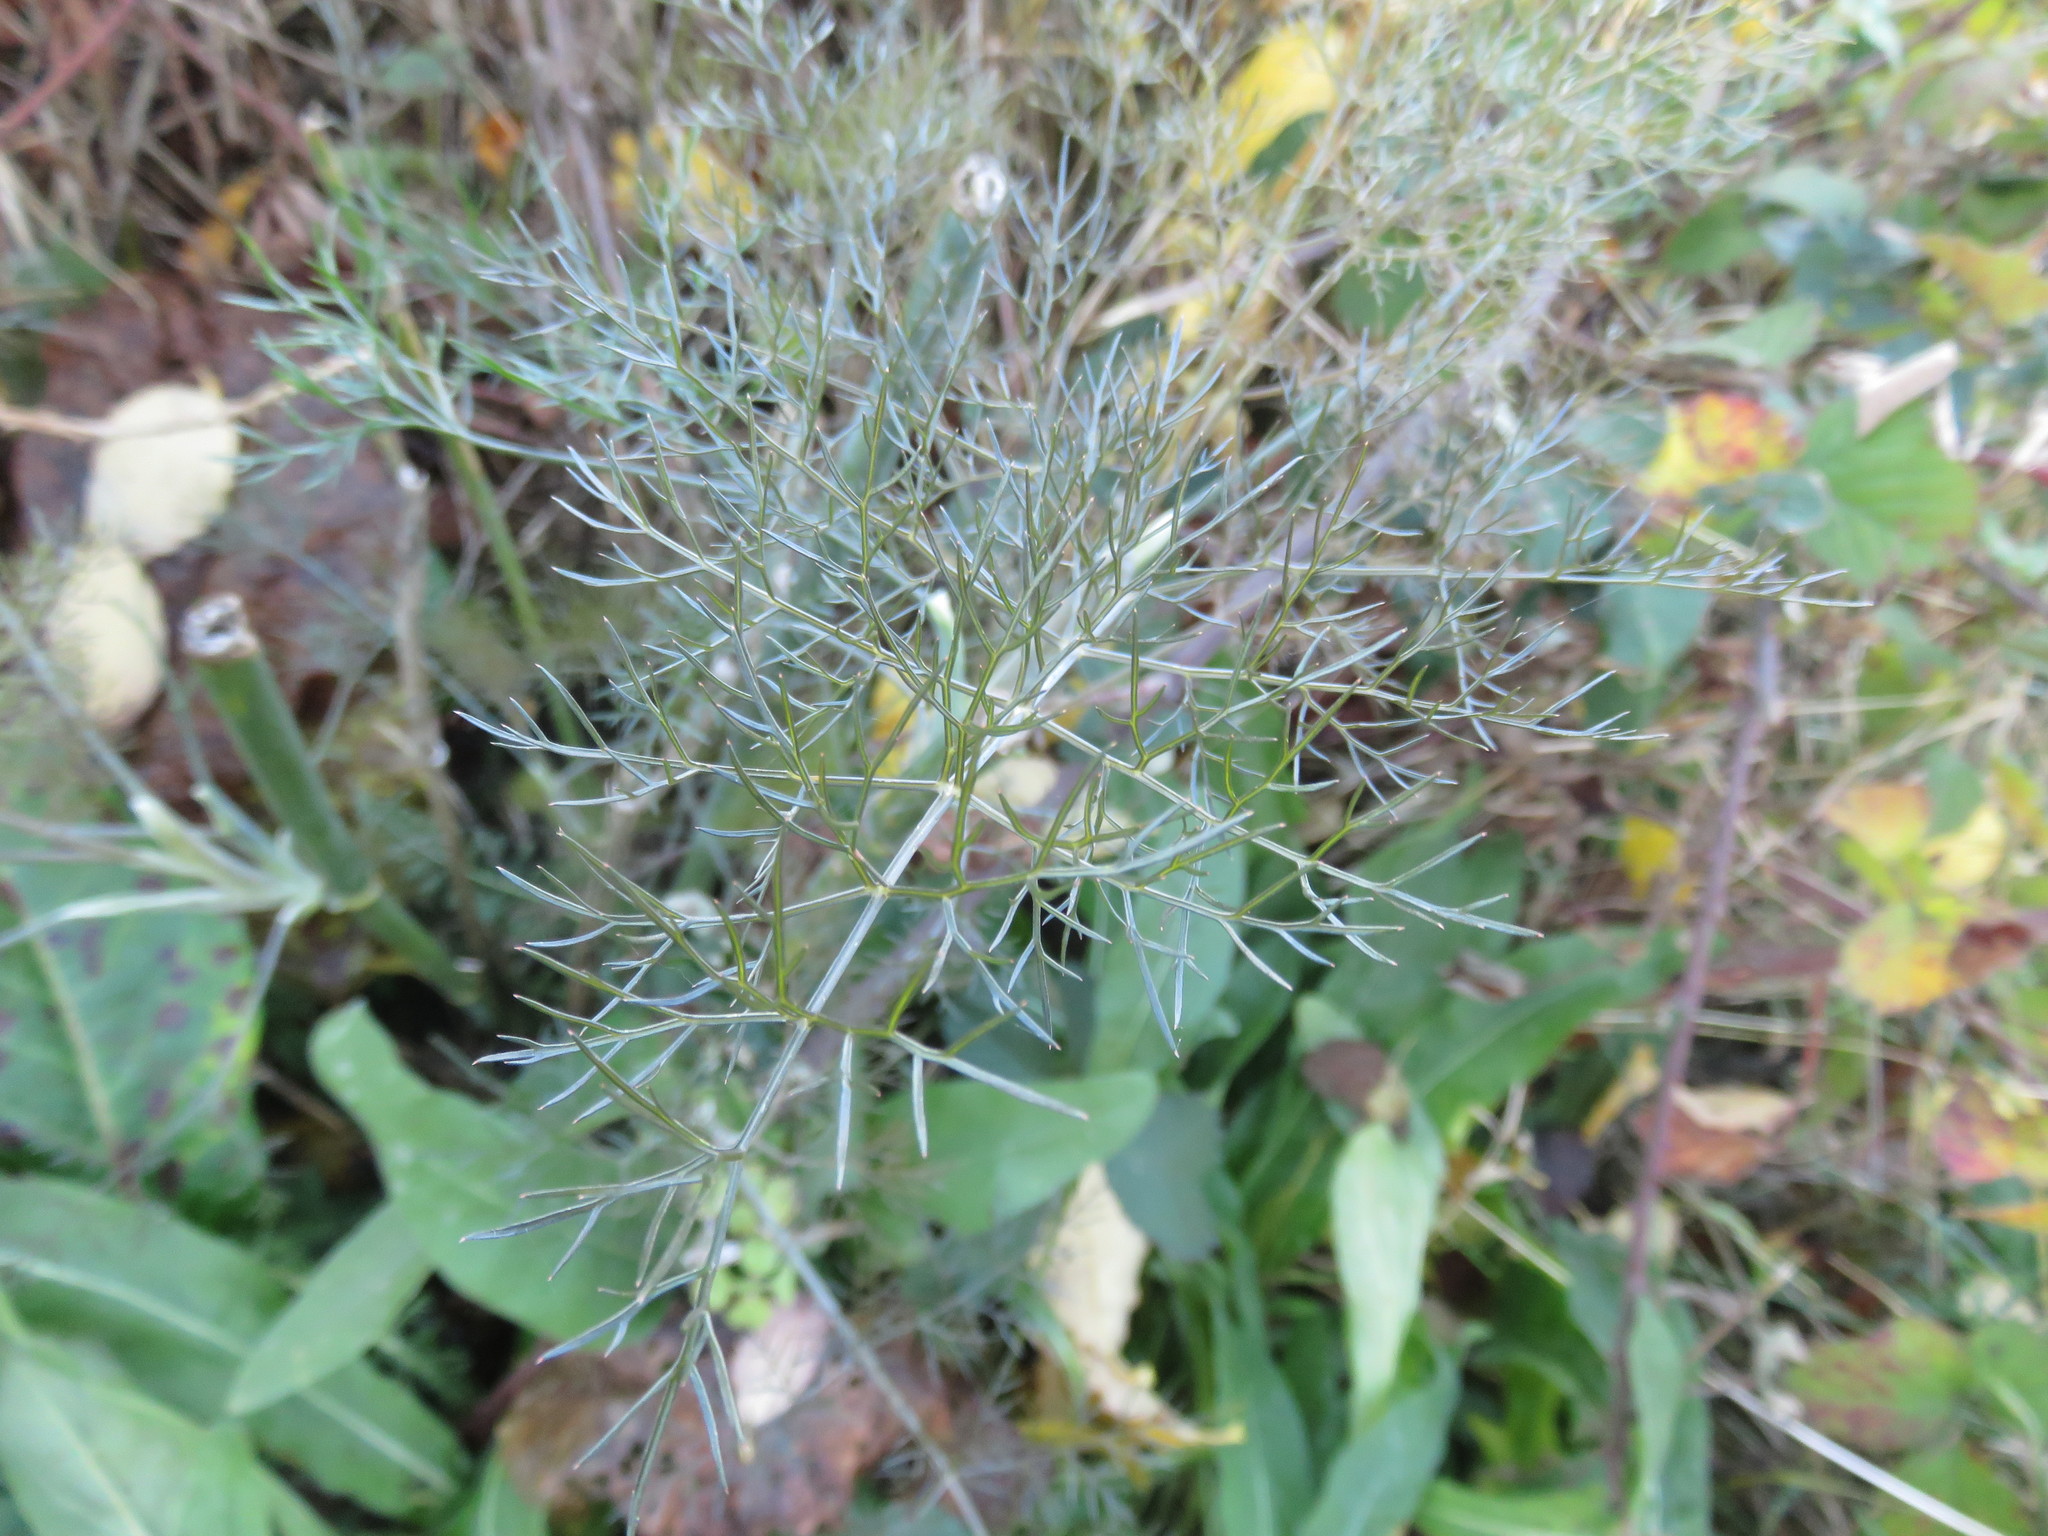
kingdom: Plantae
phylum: Tracheophyta
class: Magnoliopsida
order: Apiales
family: Apiaceae
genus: Foeniculum
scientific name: Foeniculum vulgare
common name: Fennel
